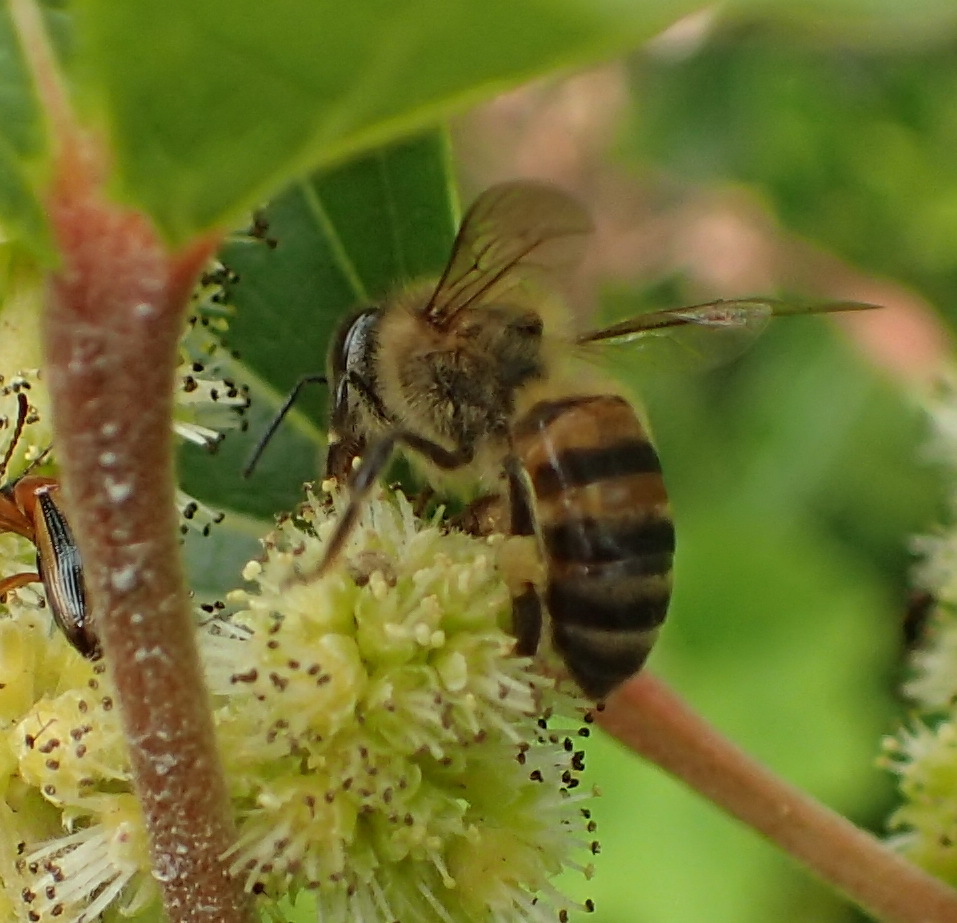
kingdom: Animalia
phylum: Arthropoda
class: Insecta
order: Hymenoptera
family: Apidae
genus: Apis
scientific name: Apis mellifera
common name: Honey bee
